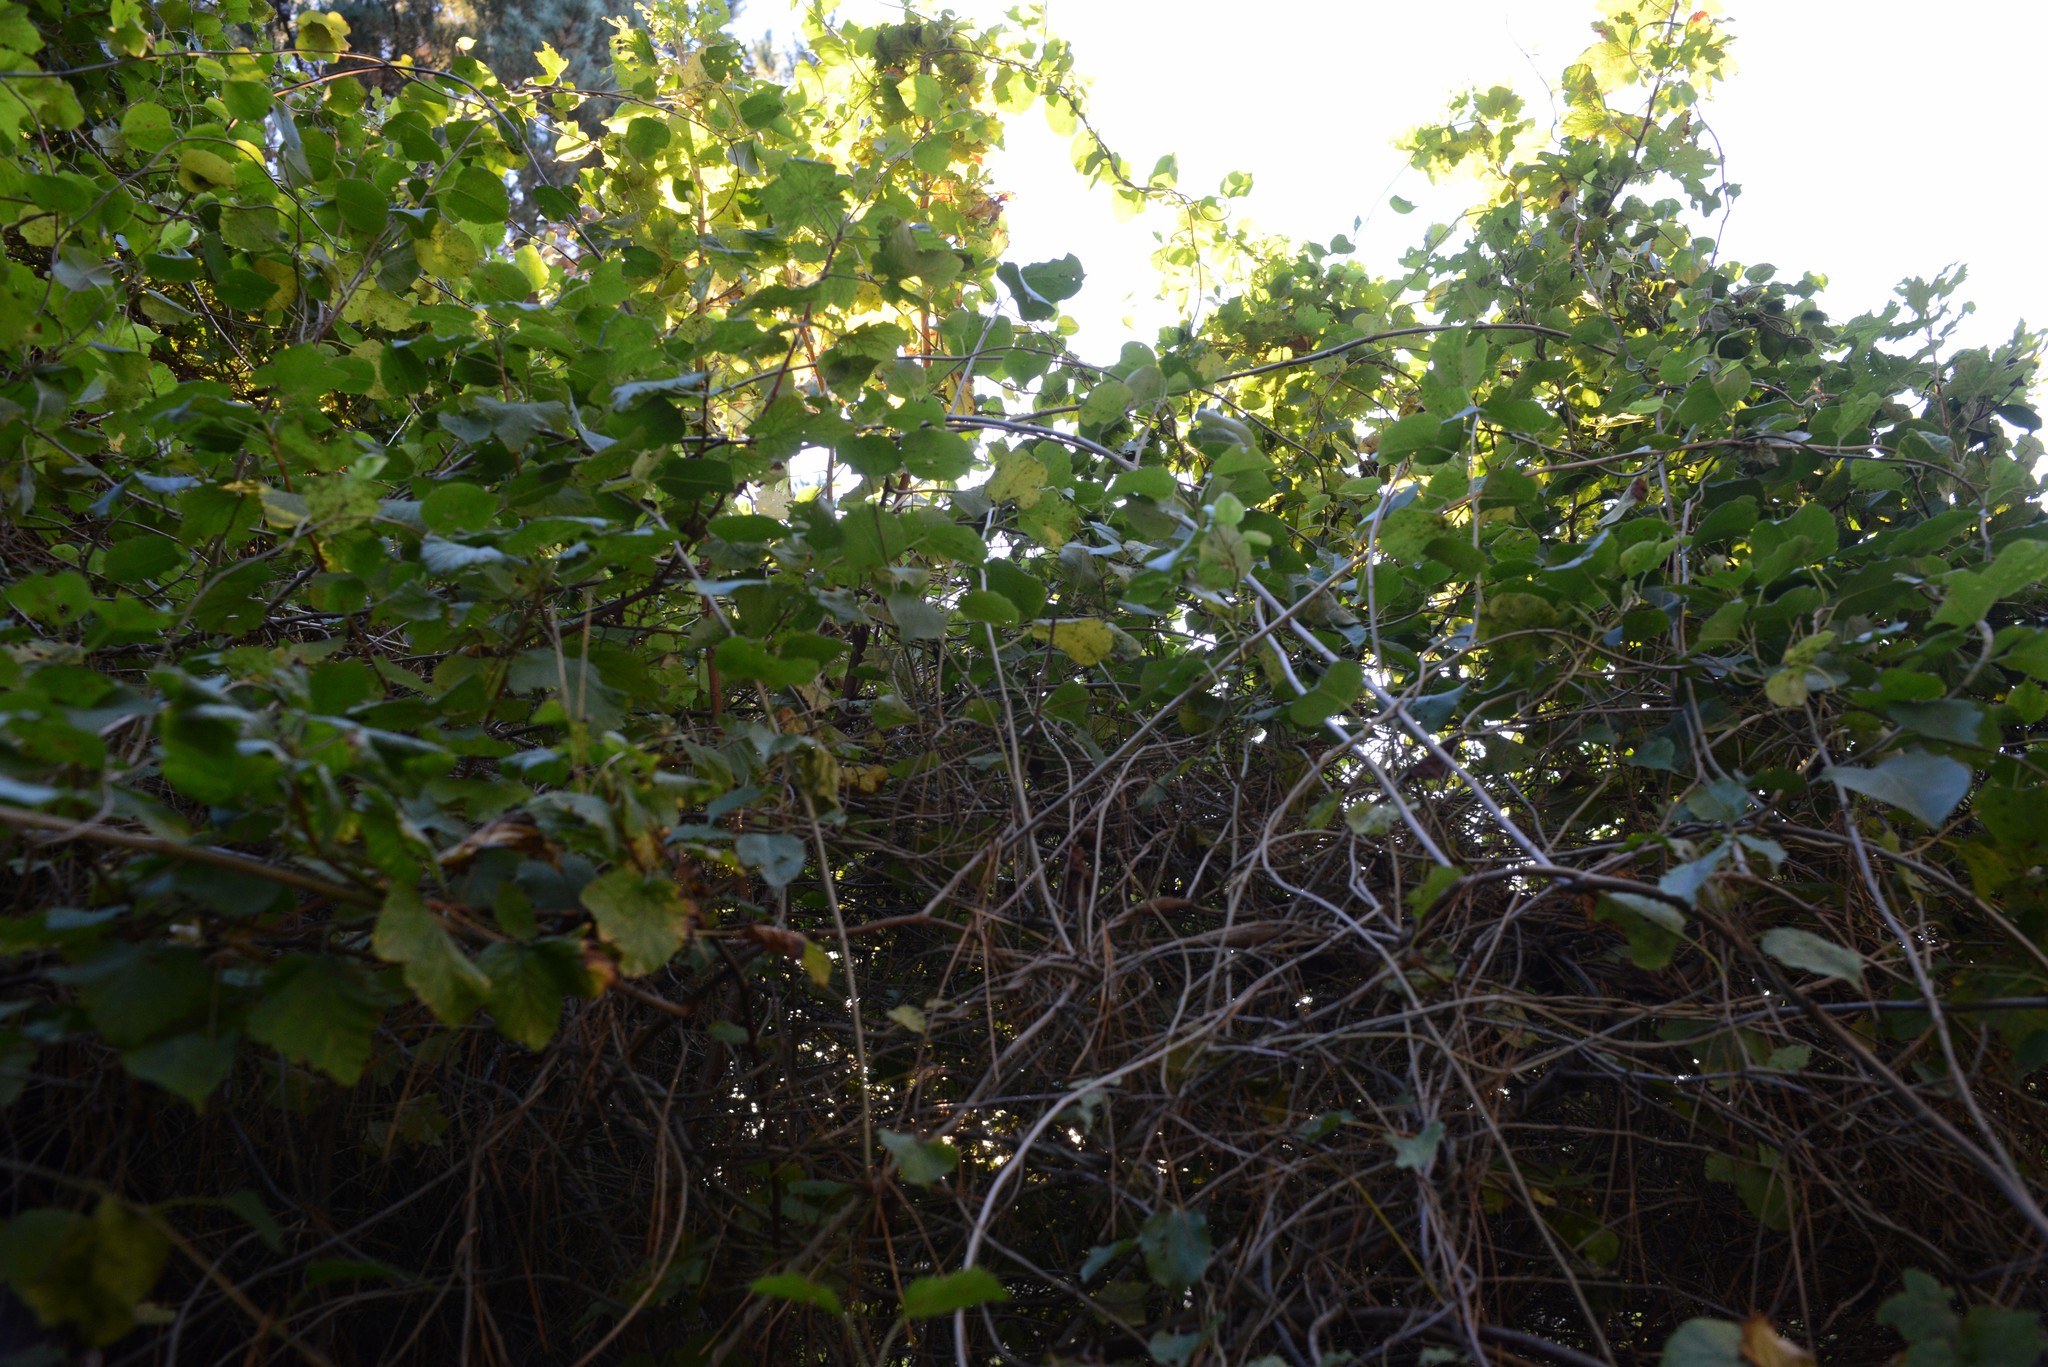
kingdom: Plantae
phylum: Tracheophyta
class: Magnoliopsida
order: Caryophyllales
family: Polygonaceae
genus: Muehlenbeckia
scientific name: Muehlenbeckia australis
